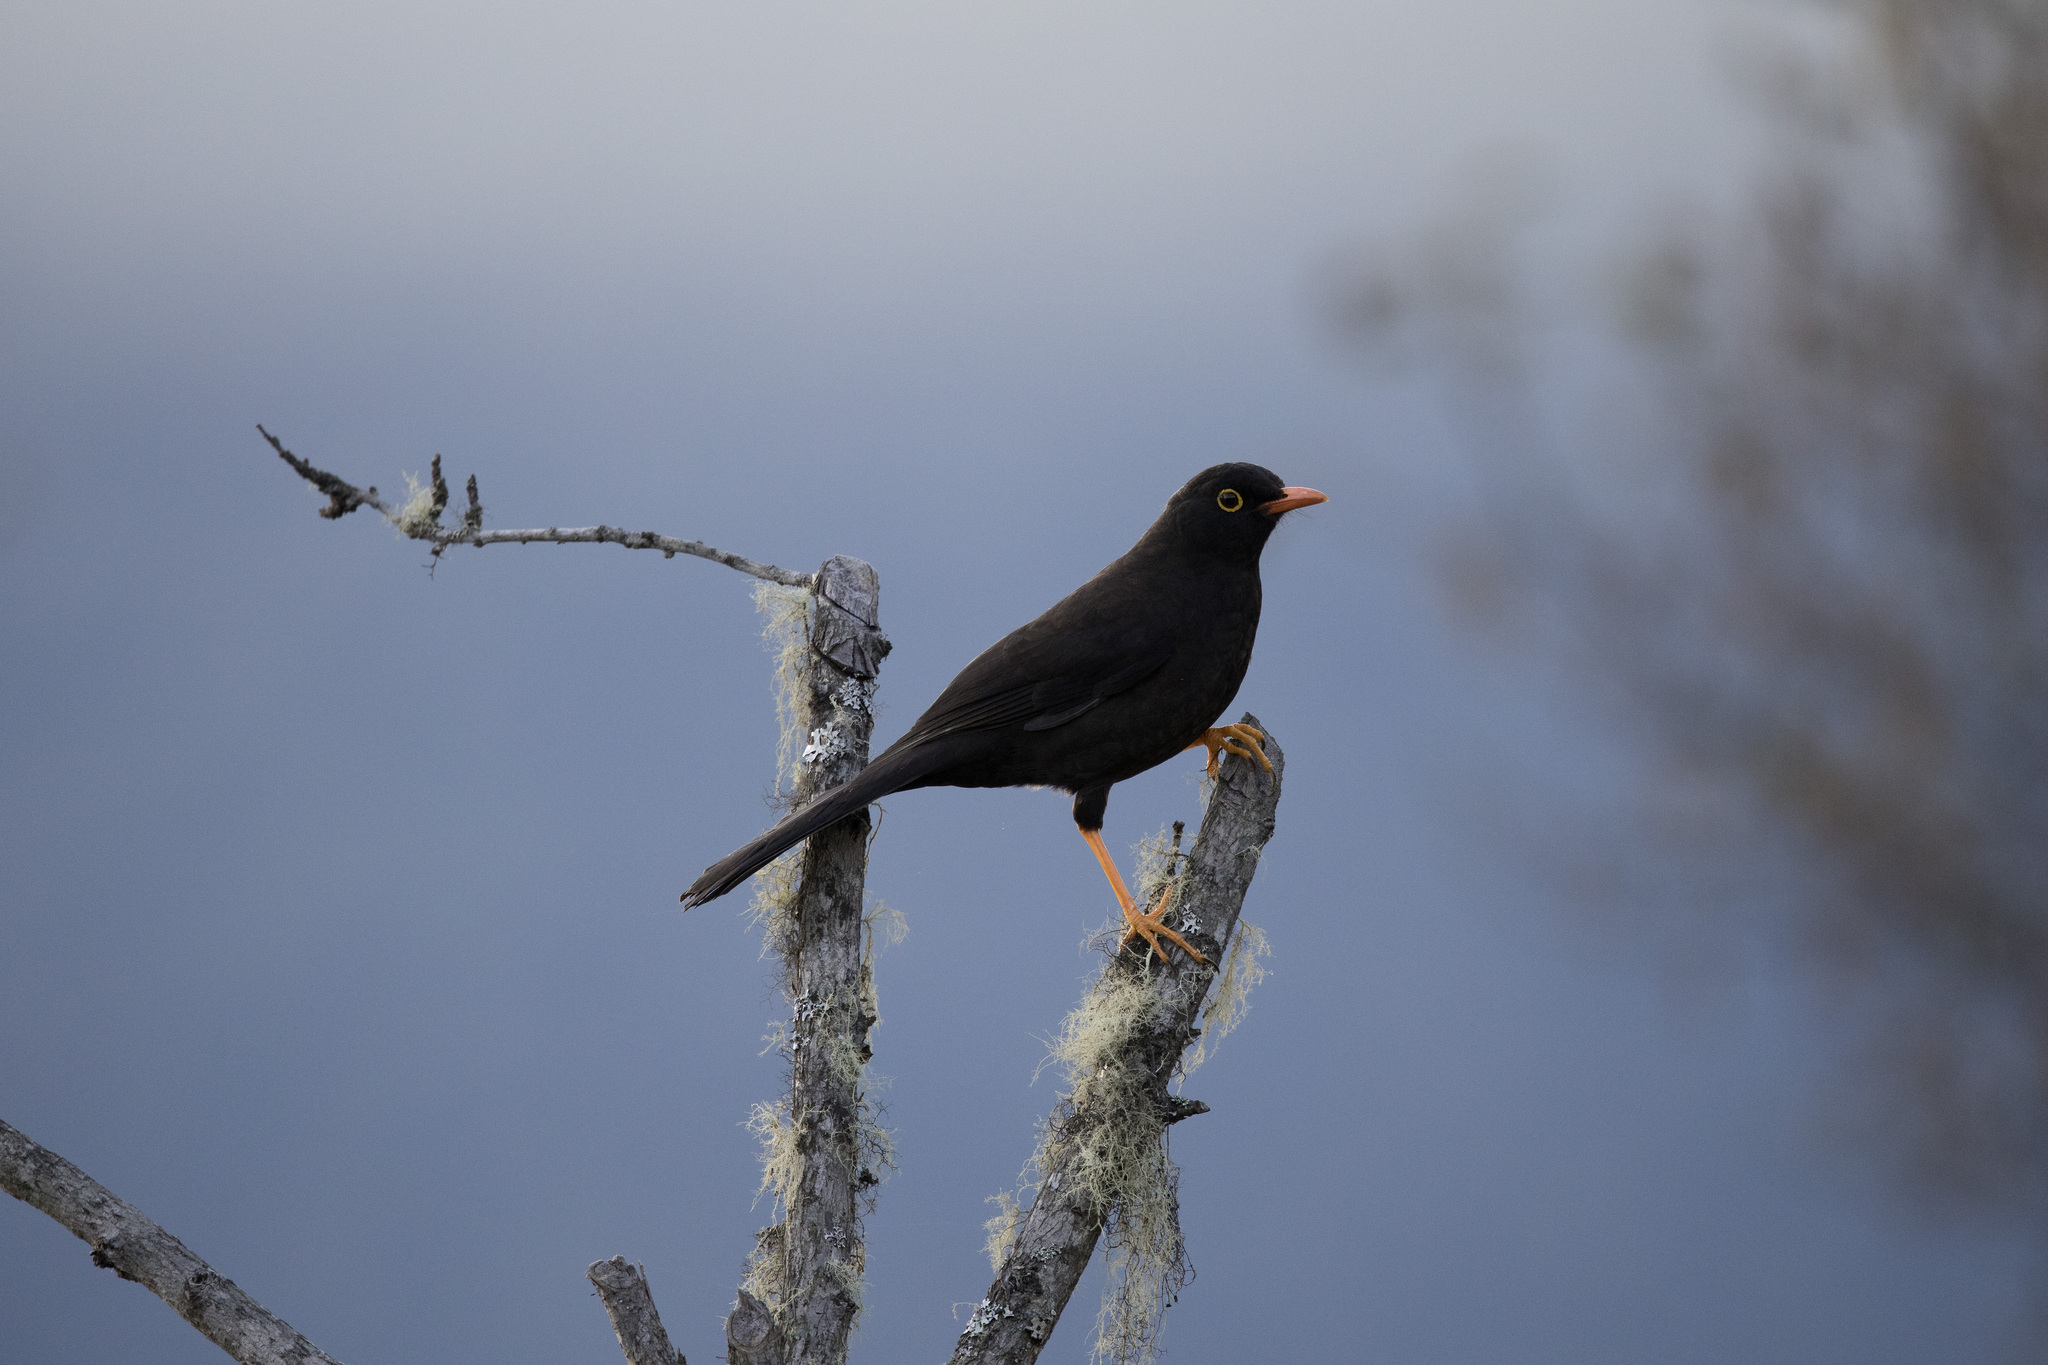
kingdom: Animalia
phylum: Chordata
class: Aves
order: Passeriformes
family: Turdidae
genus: Turdus
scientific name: Turdus fuscater
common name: Great thrush
